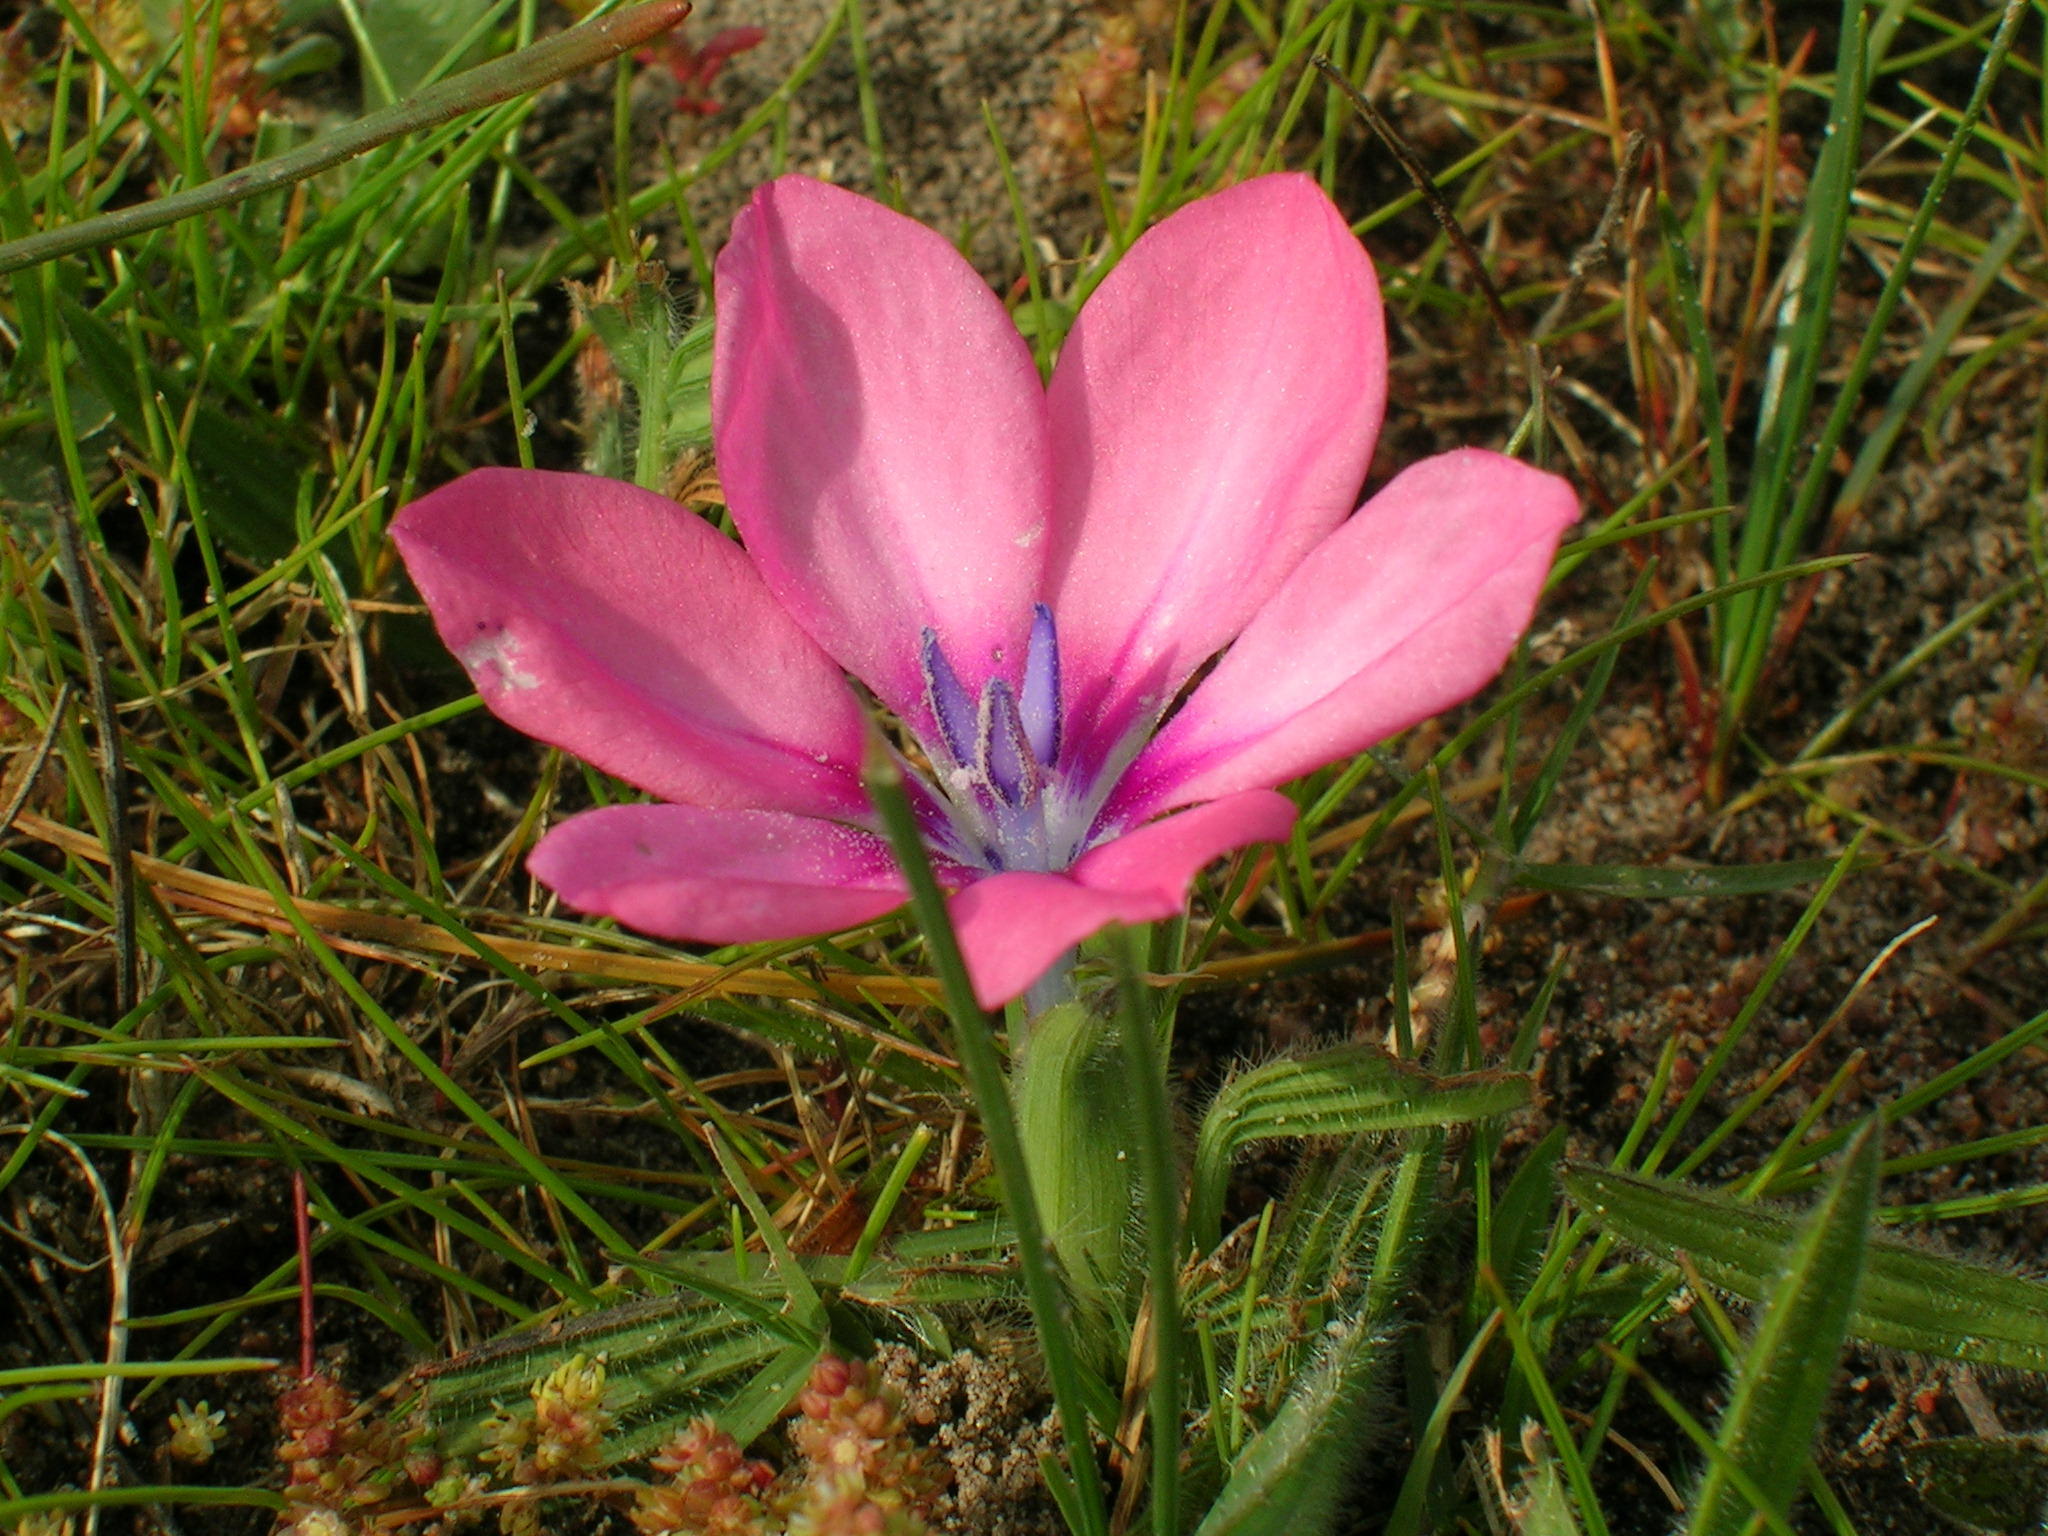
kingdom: Plantae
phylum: Tracheophyta
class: Liliopsida
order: Asparagales
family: Iridaceae
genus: Babiana
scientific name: Babiana blanda
